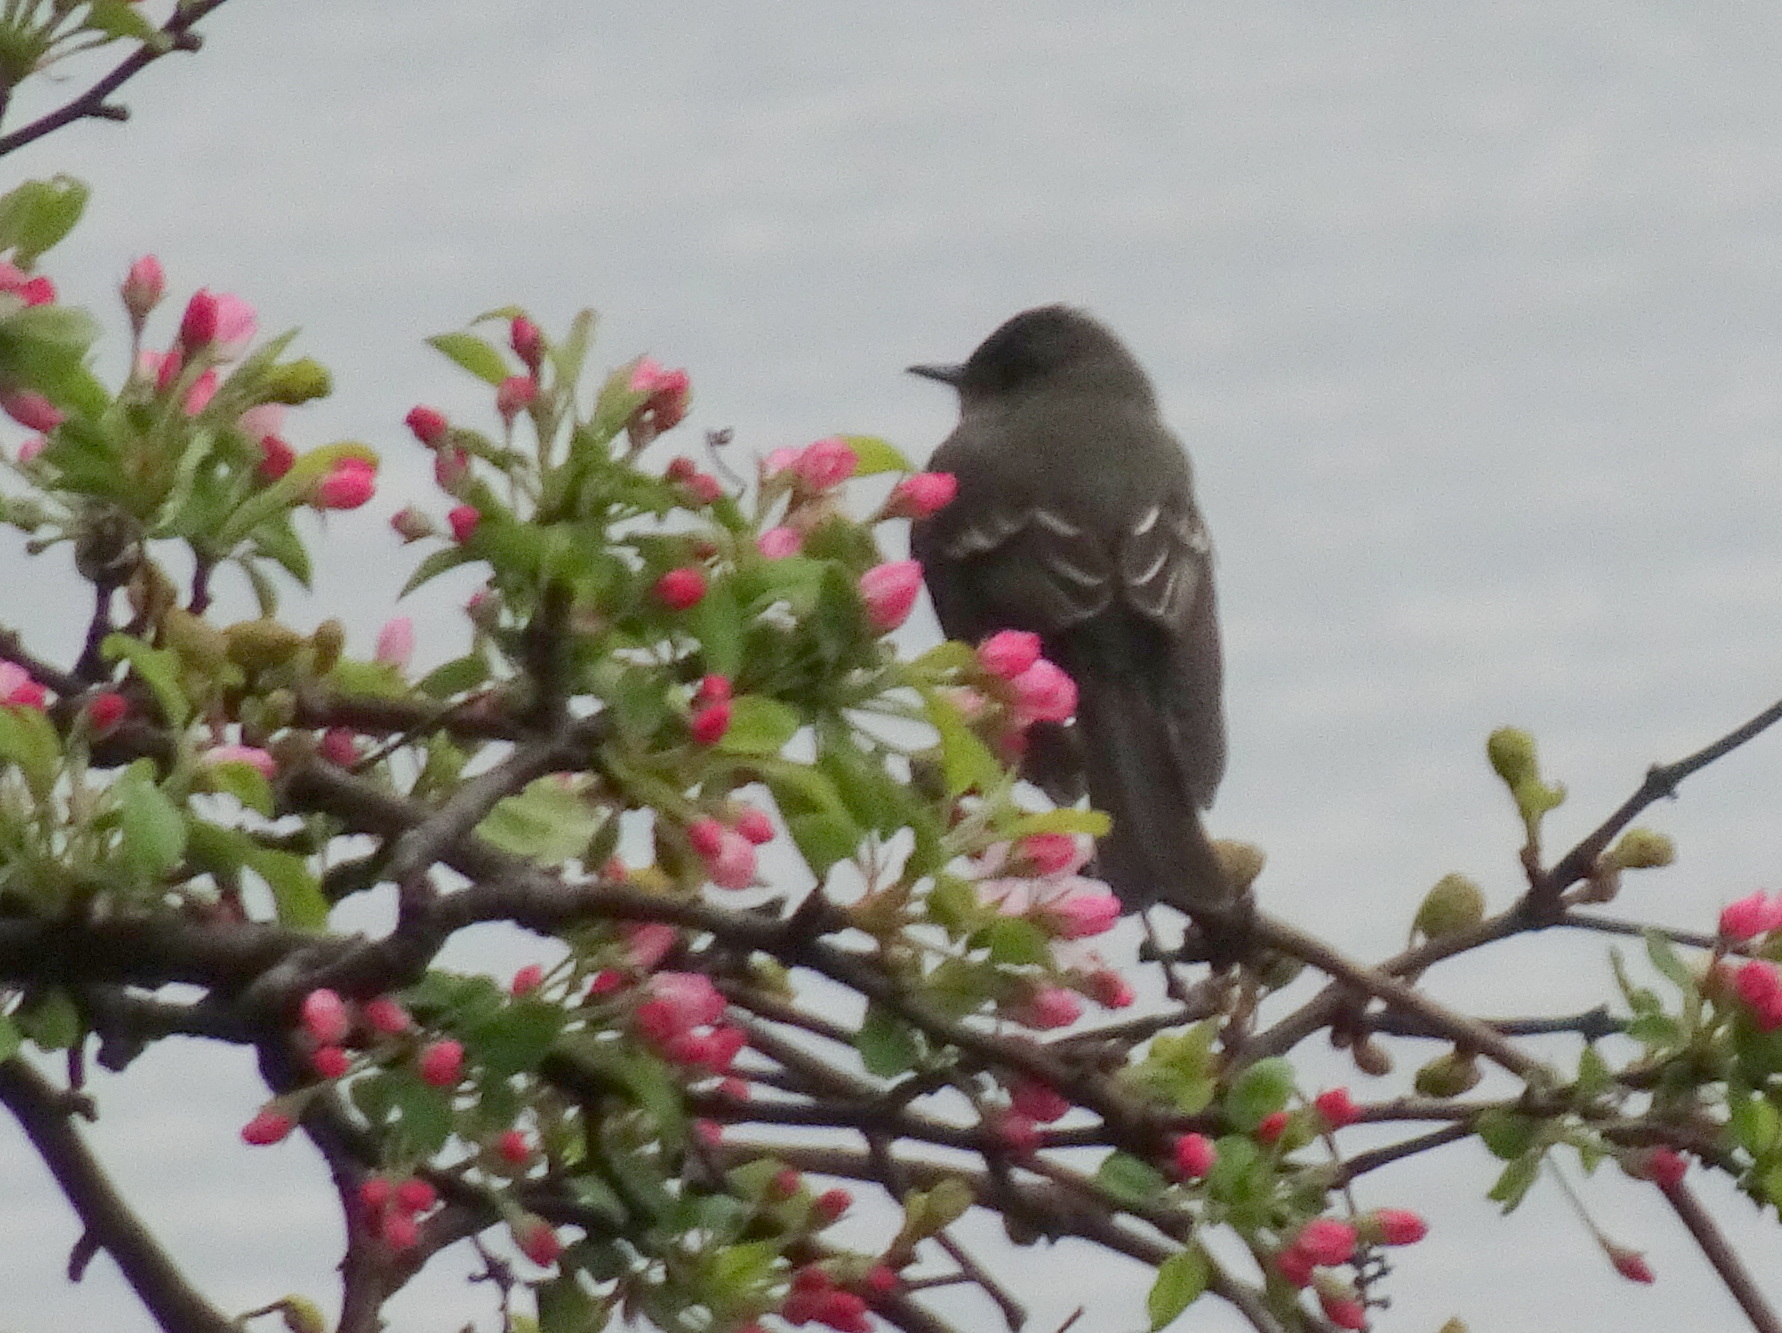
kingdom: Animalia
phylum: Chordata
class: Aves
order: Passeriformes
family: Tyrannidae
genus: Contopus
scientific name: Contopus virens
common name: Eastern wood-pewee
